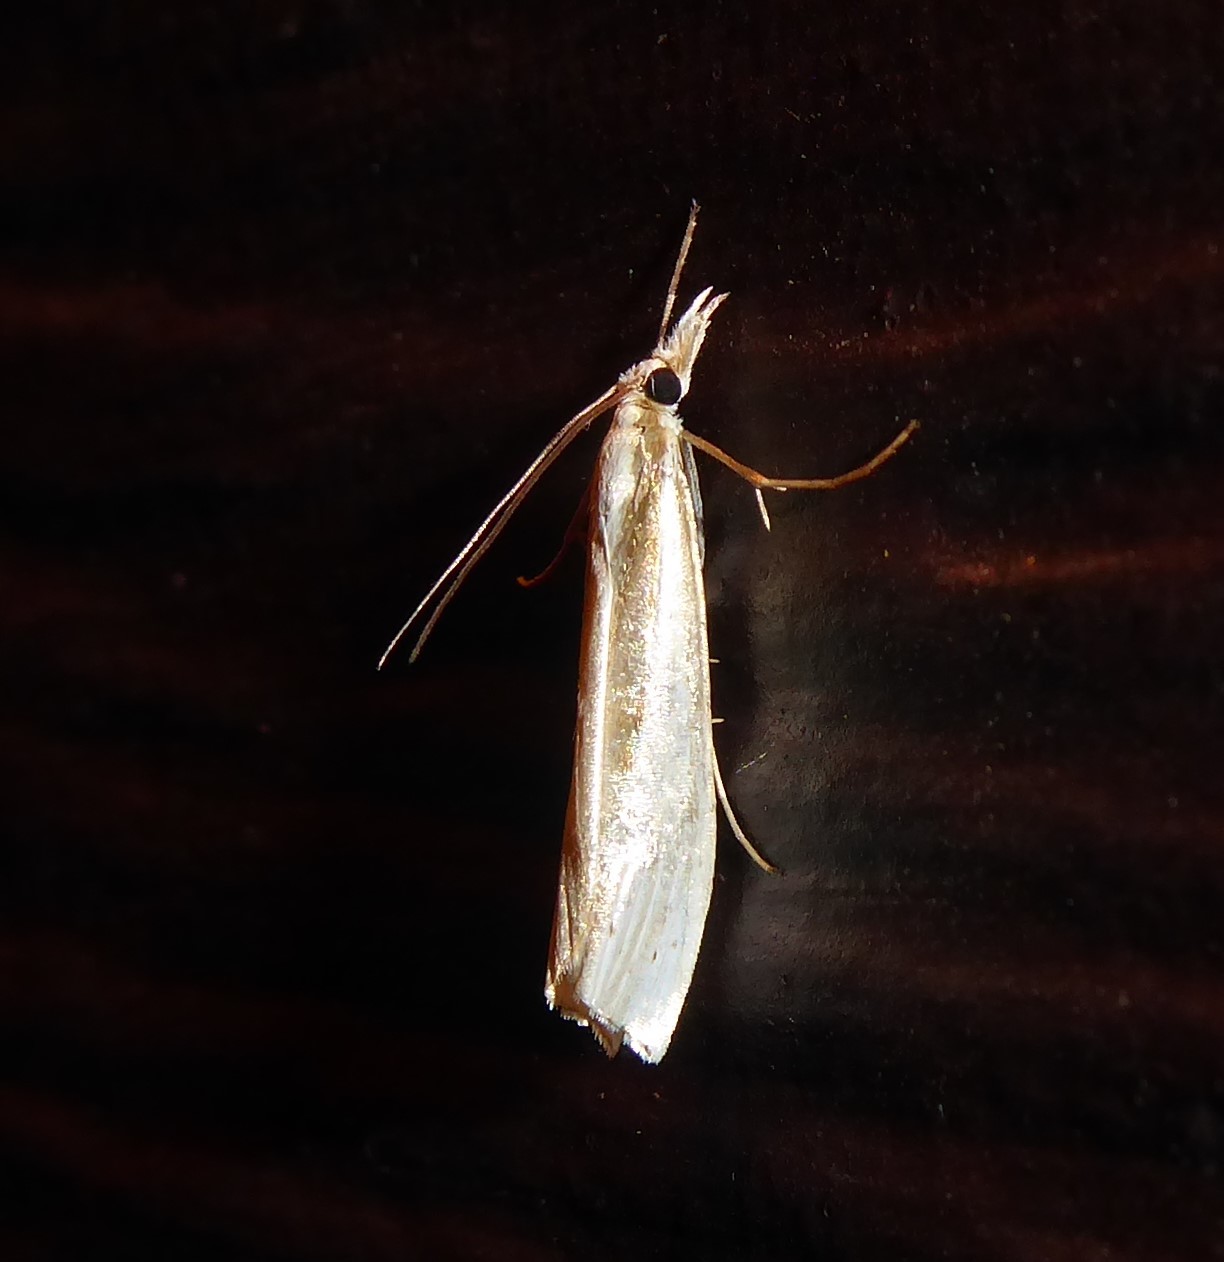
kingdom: Animalia
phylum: Arthropoda
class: Insecta
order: Lepidoptera
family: Crambidae
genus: Orocrambus
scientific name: Orocrambus ramosellus
